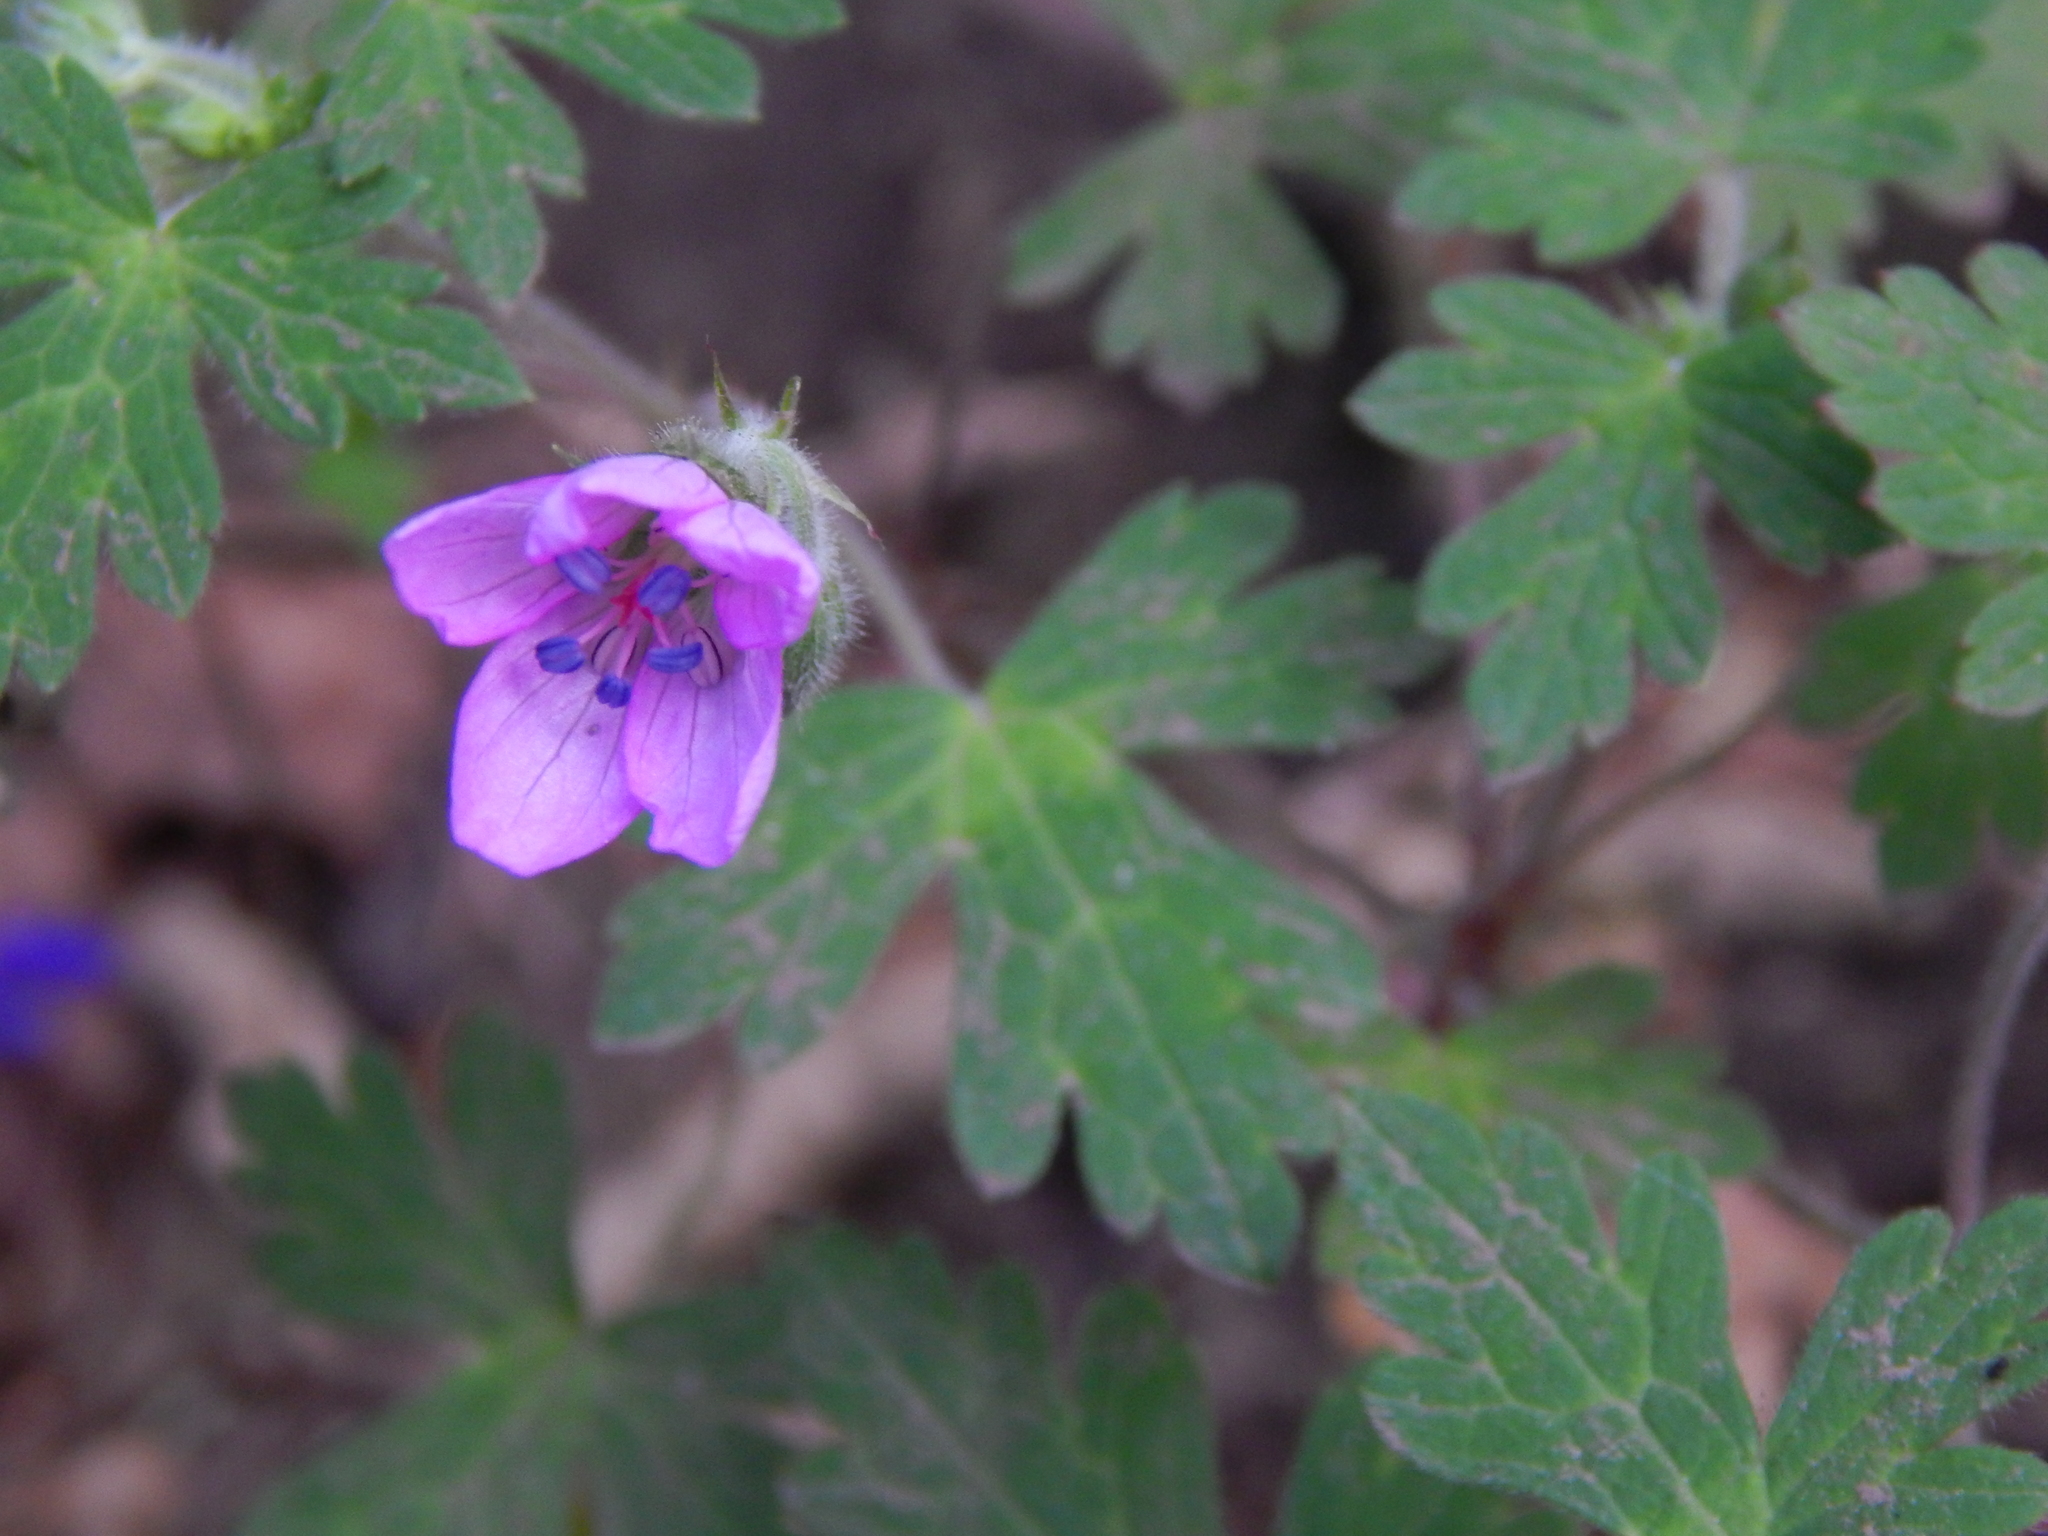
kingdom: Plantae
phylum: Tracheophyta
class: Magnoliopsida
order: Geraniales
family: Geraniaceae
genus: Geranium
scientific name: Geranium seemannii
